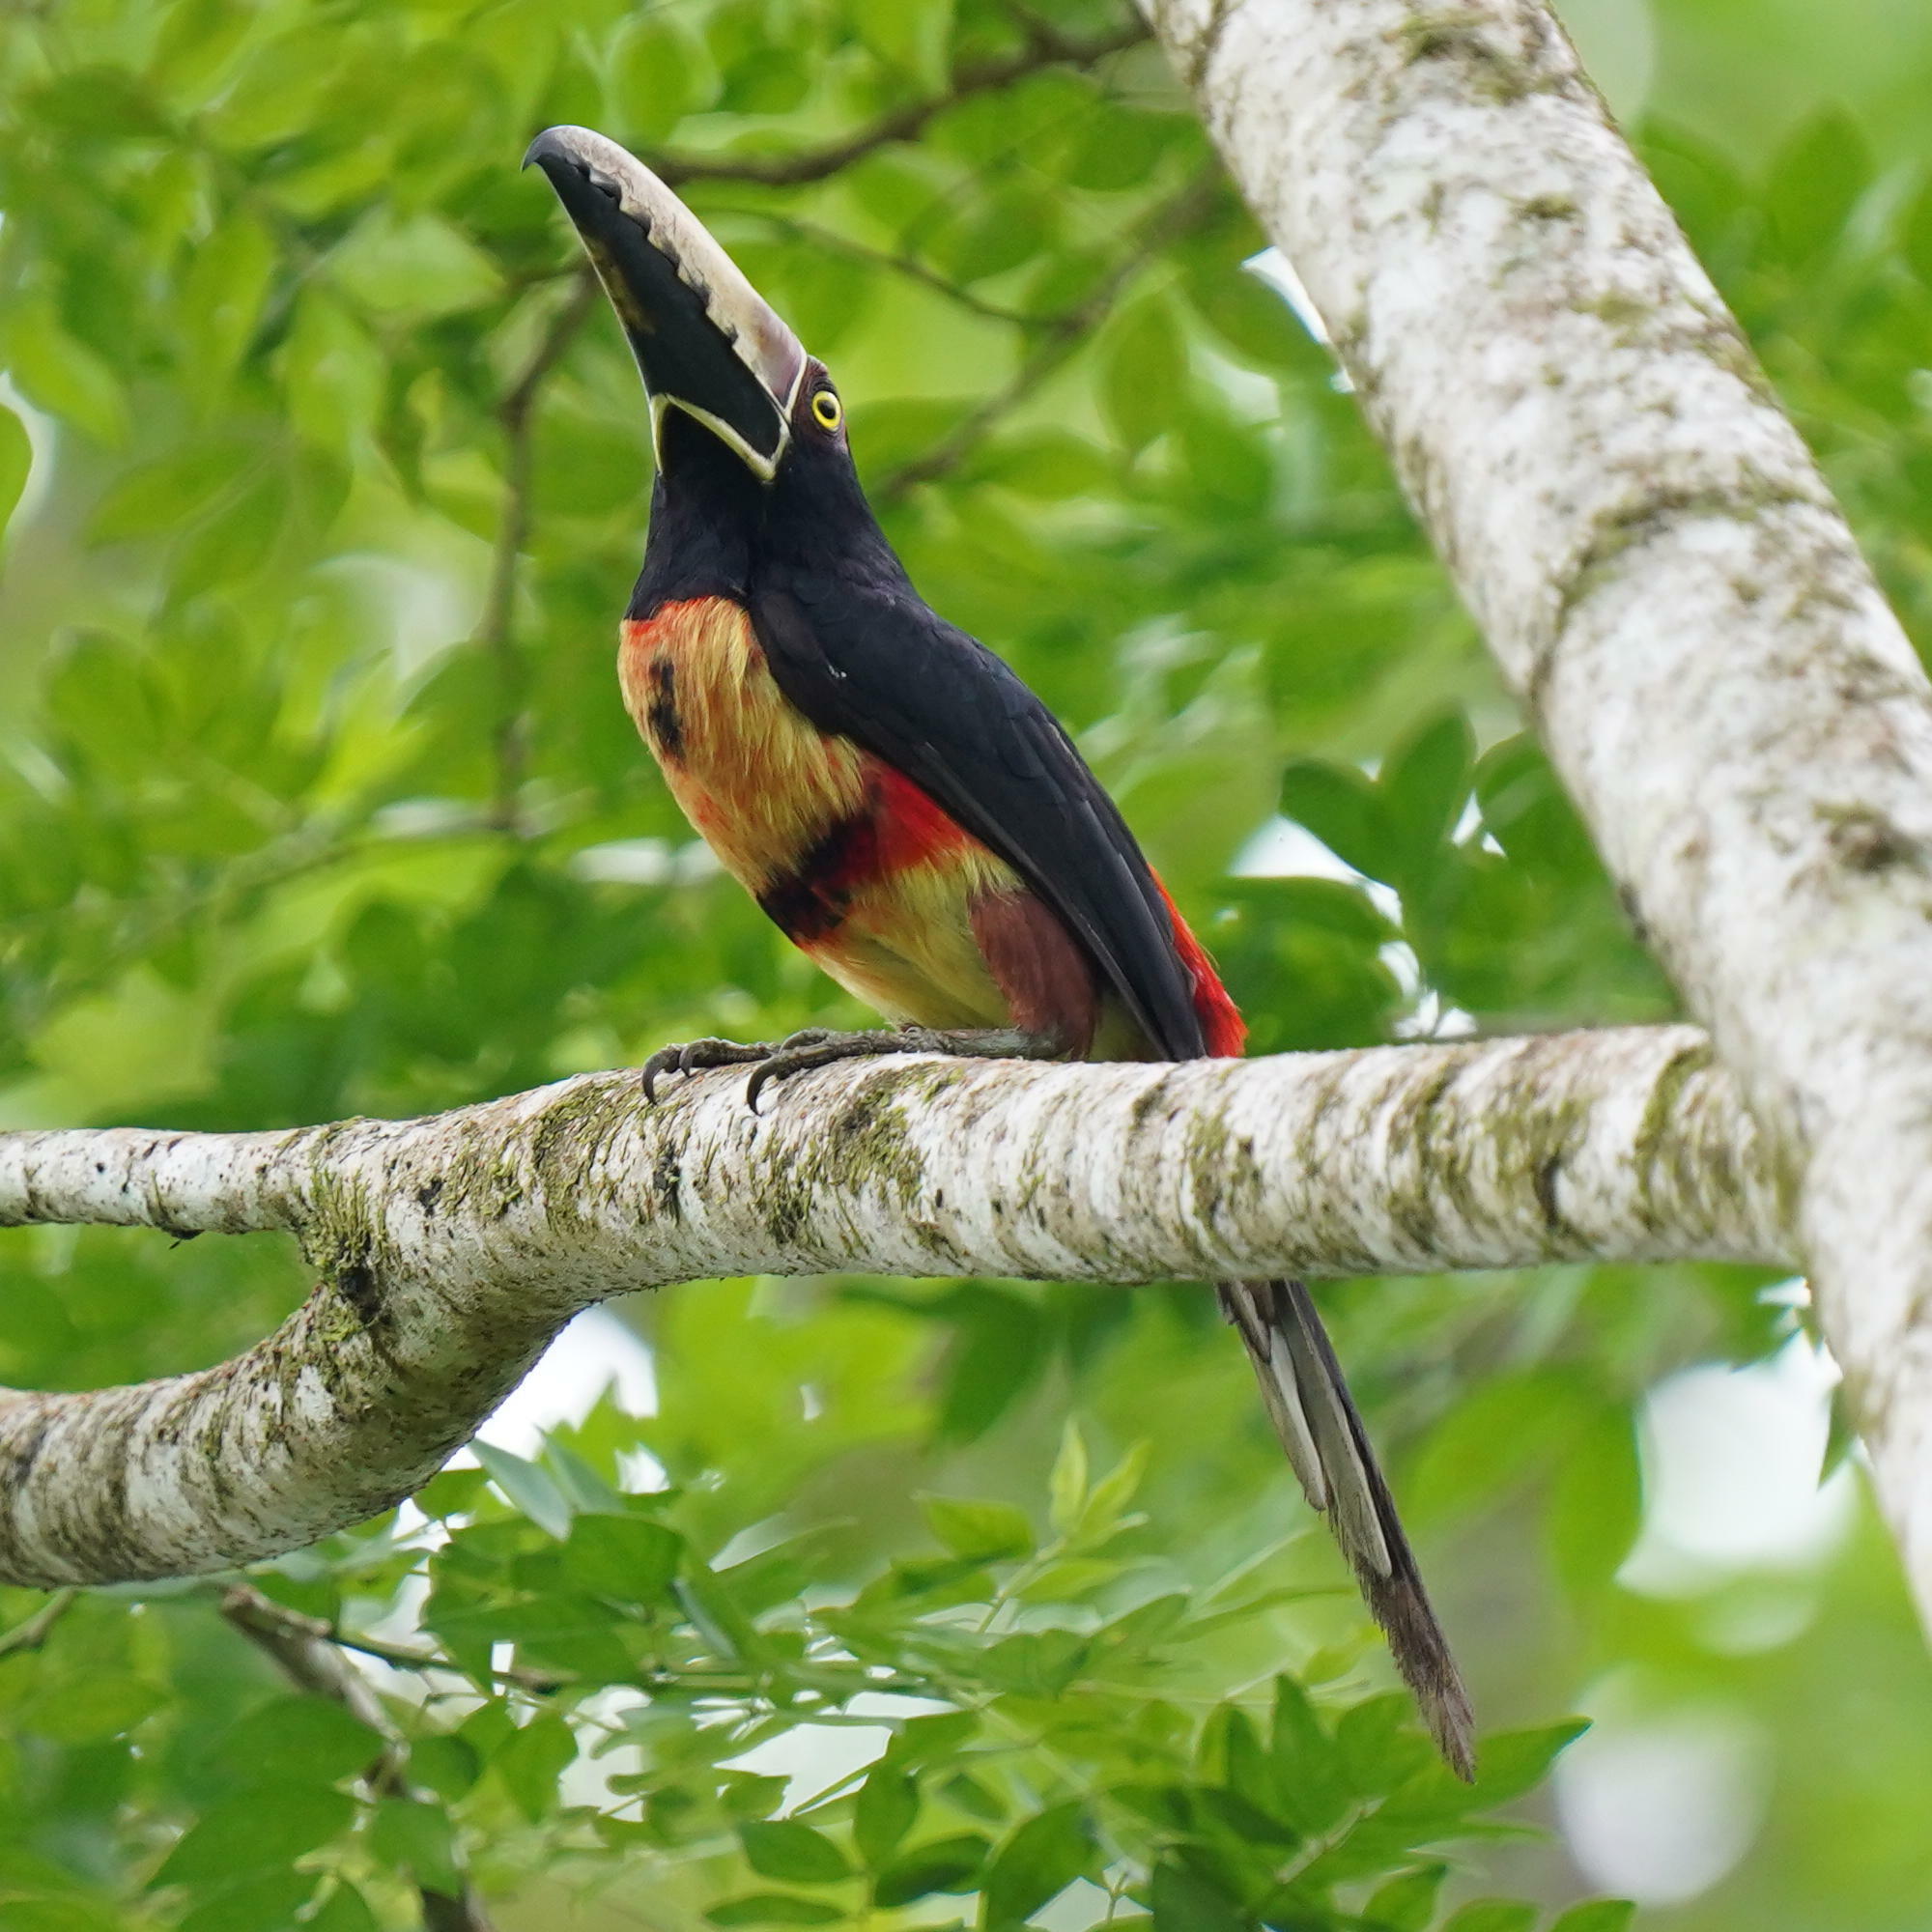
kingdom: Animalia
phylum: Chordata
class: Aves
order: Piciformes
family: Ramphastidae
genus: Pteroglossus
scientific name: Pteroglossus torquatus
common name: Collared aracari
